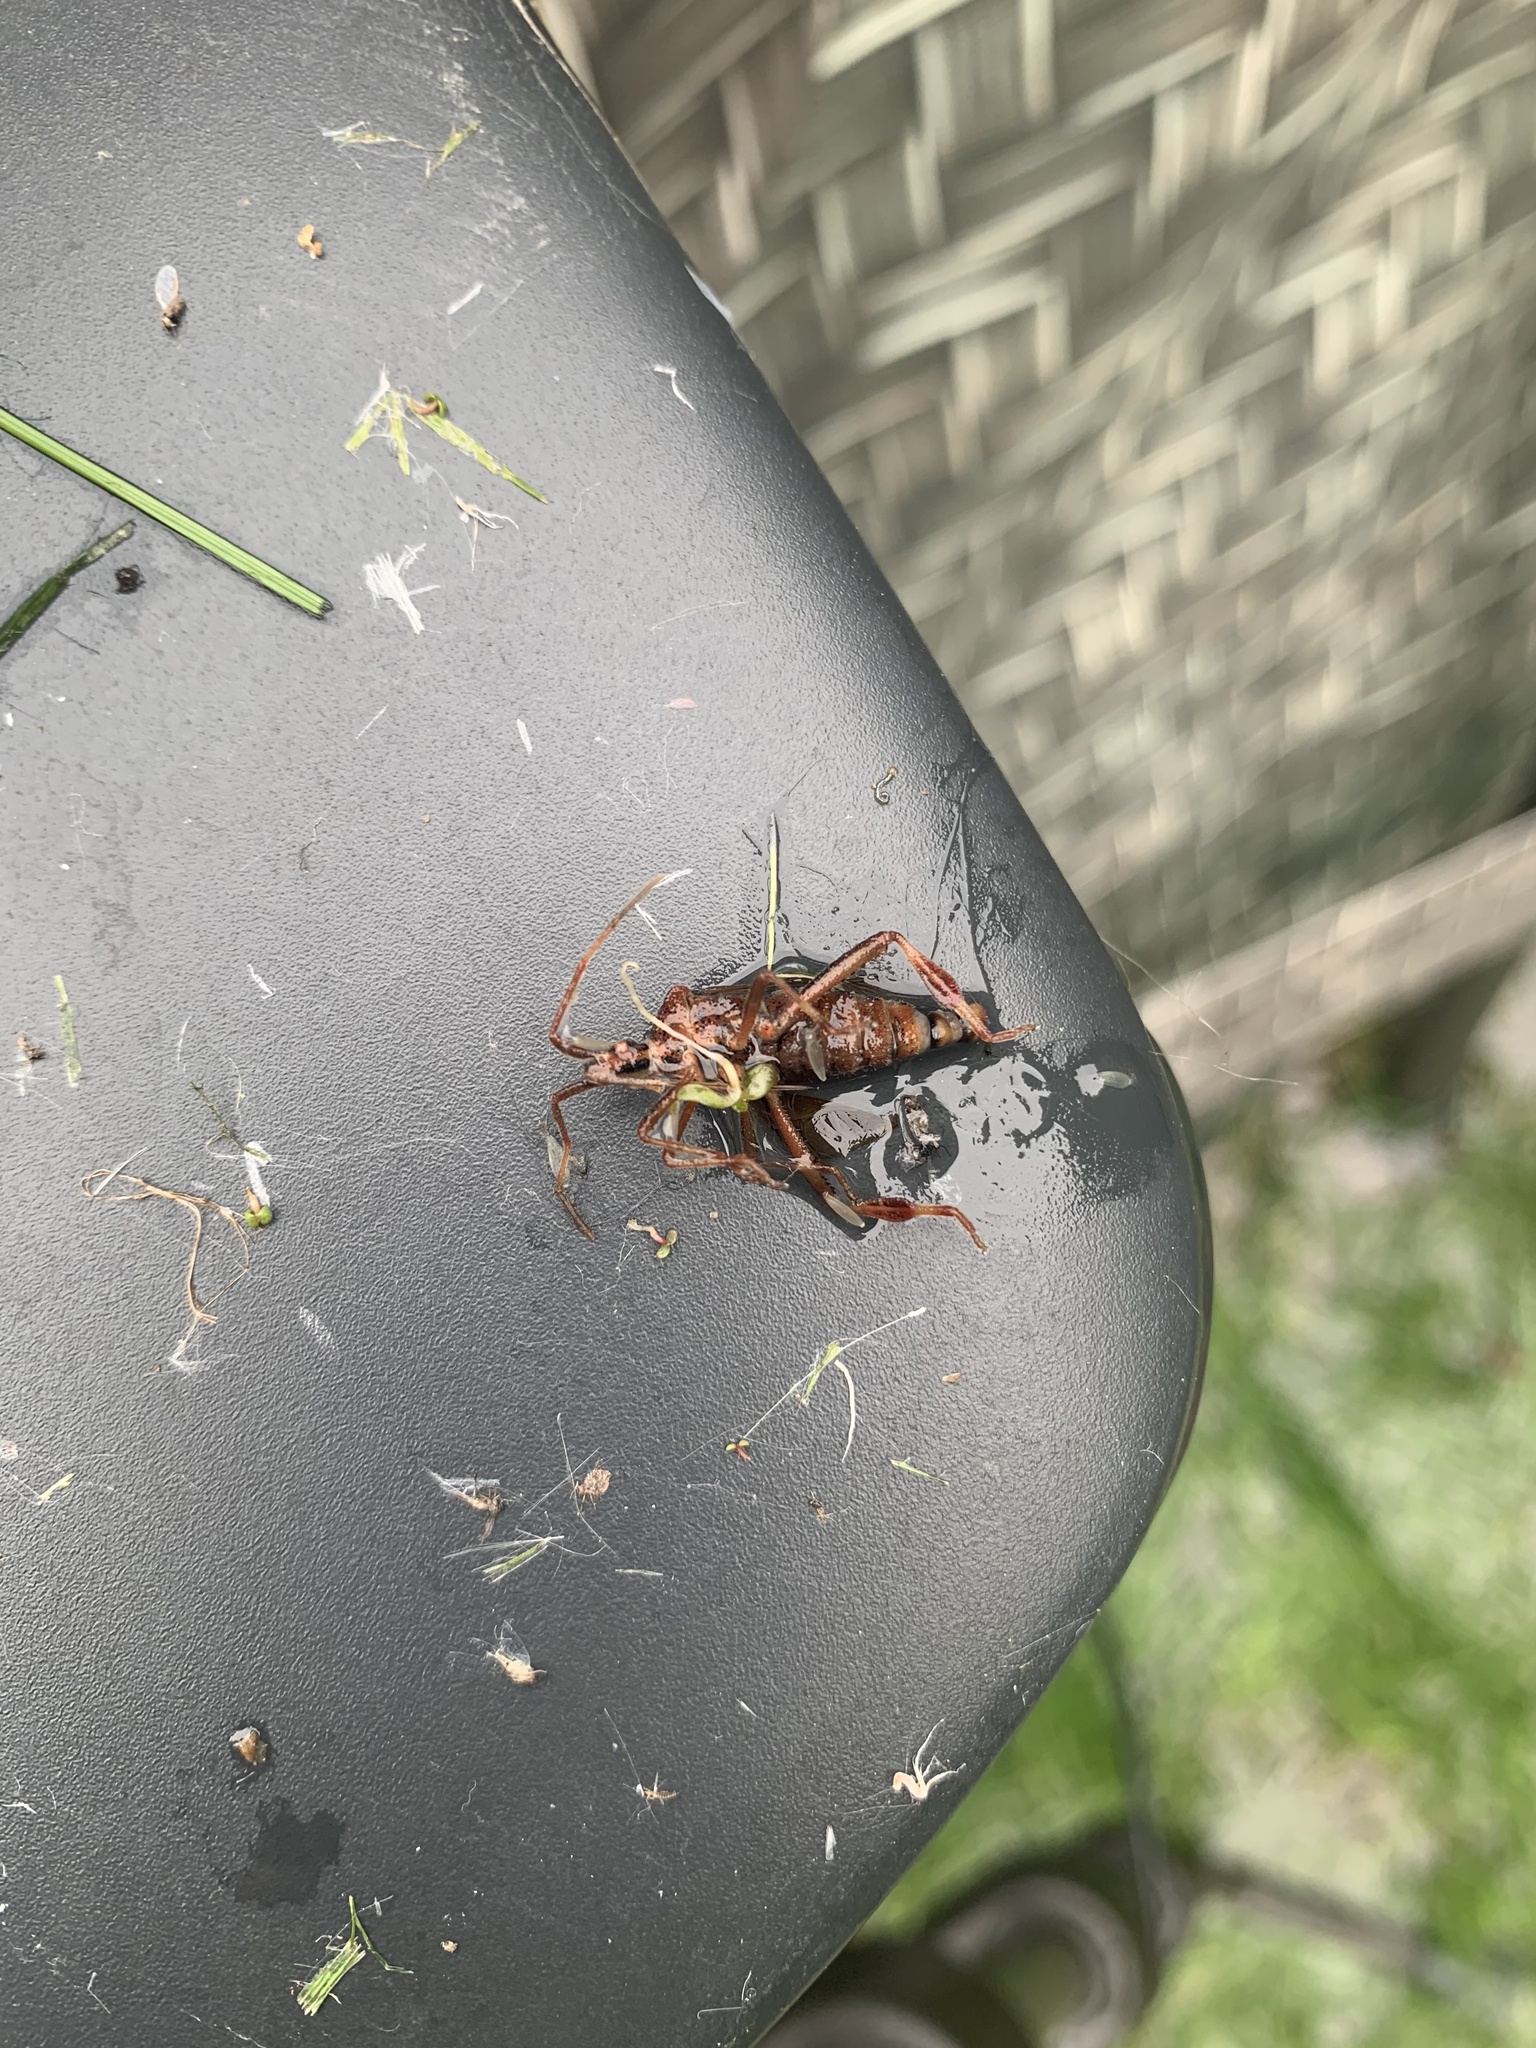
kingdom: Animalia
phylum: Arthropoda
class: Insecta
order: Hemiptera
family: Coreidae
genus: Leptoglossus
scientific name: Leptoglossus occidentalis
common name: Western conifer-seed bug
